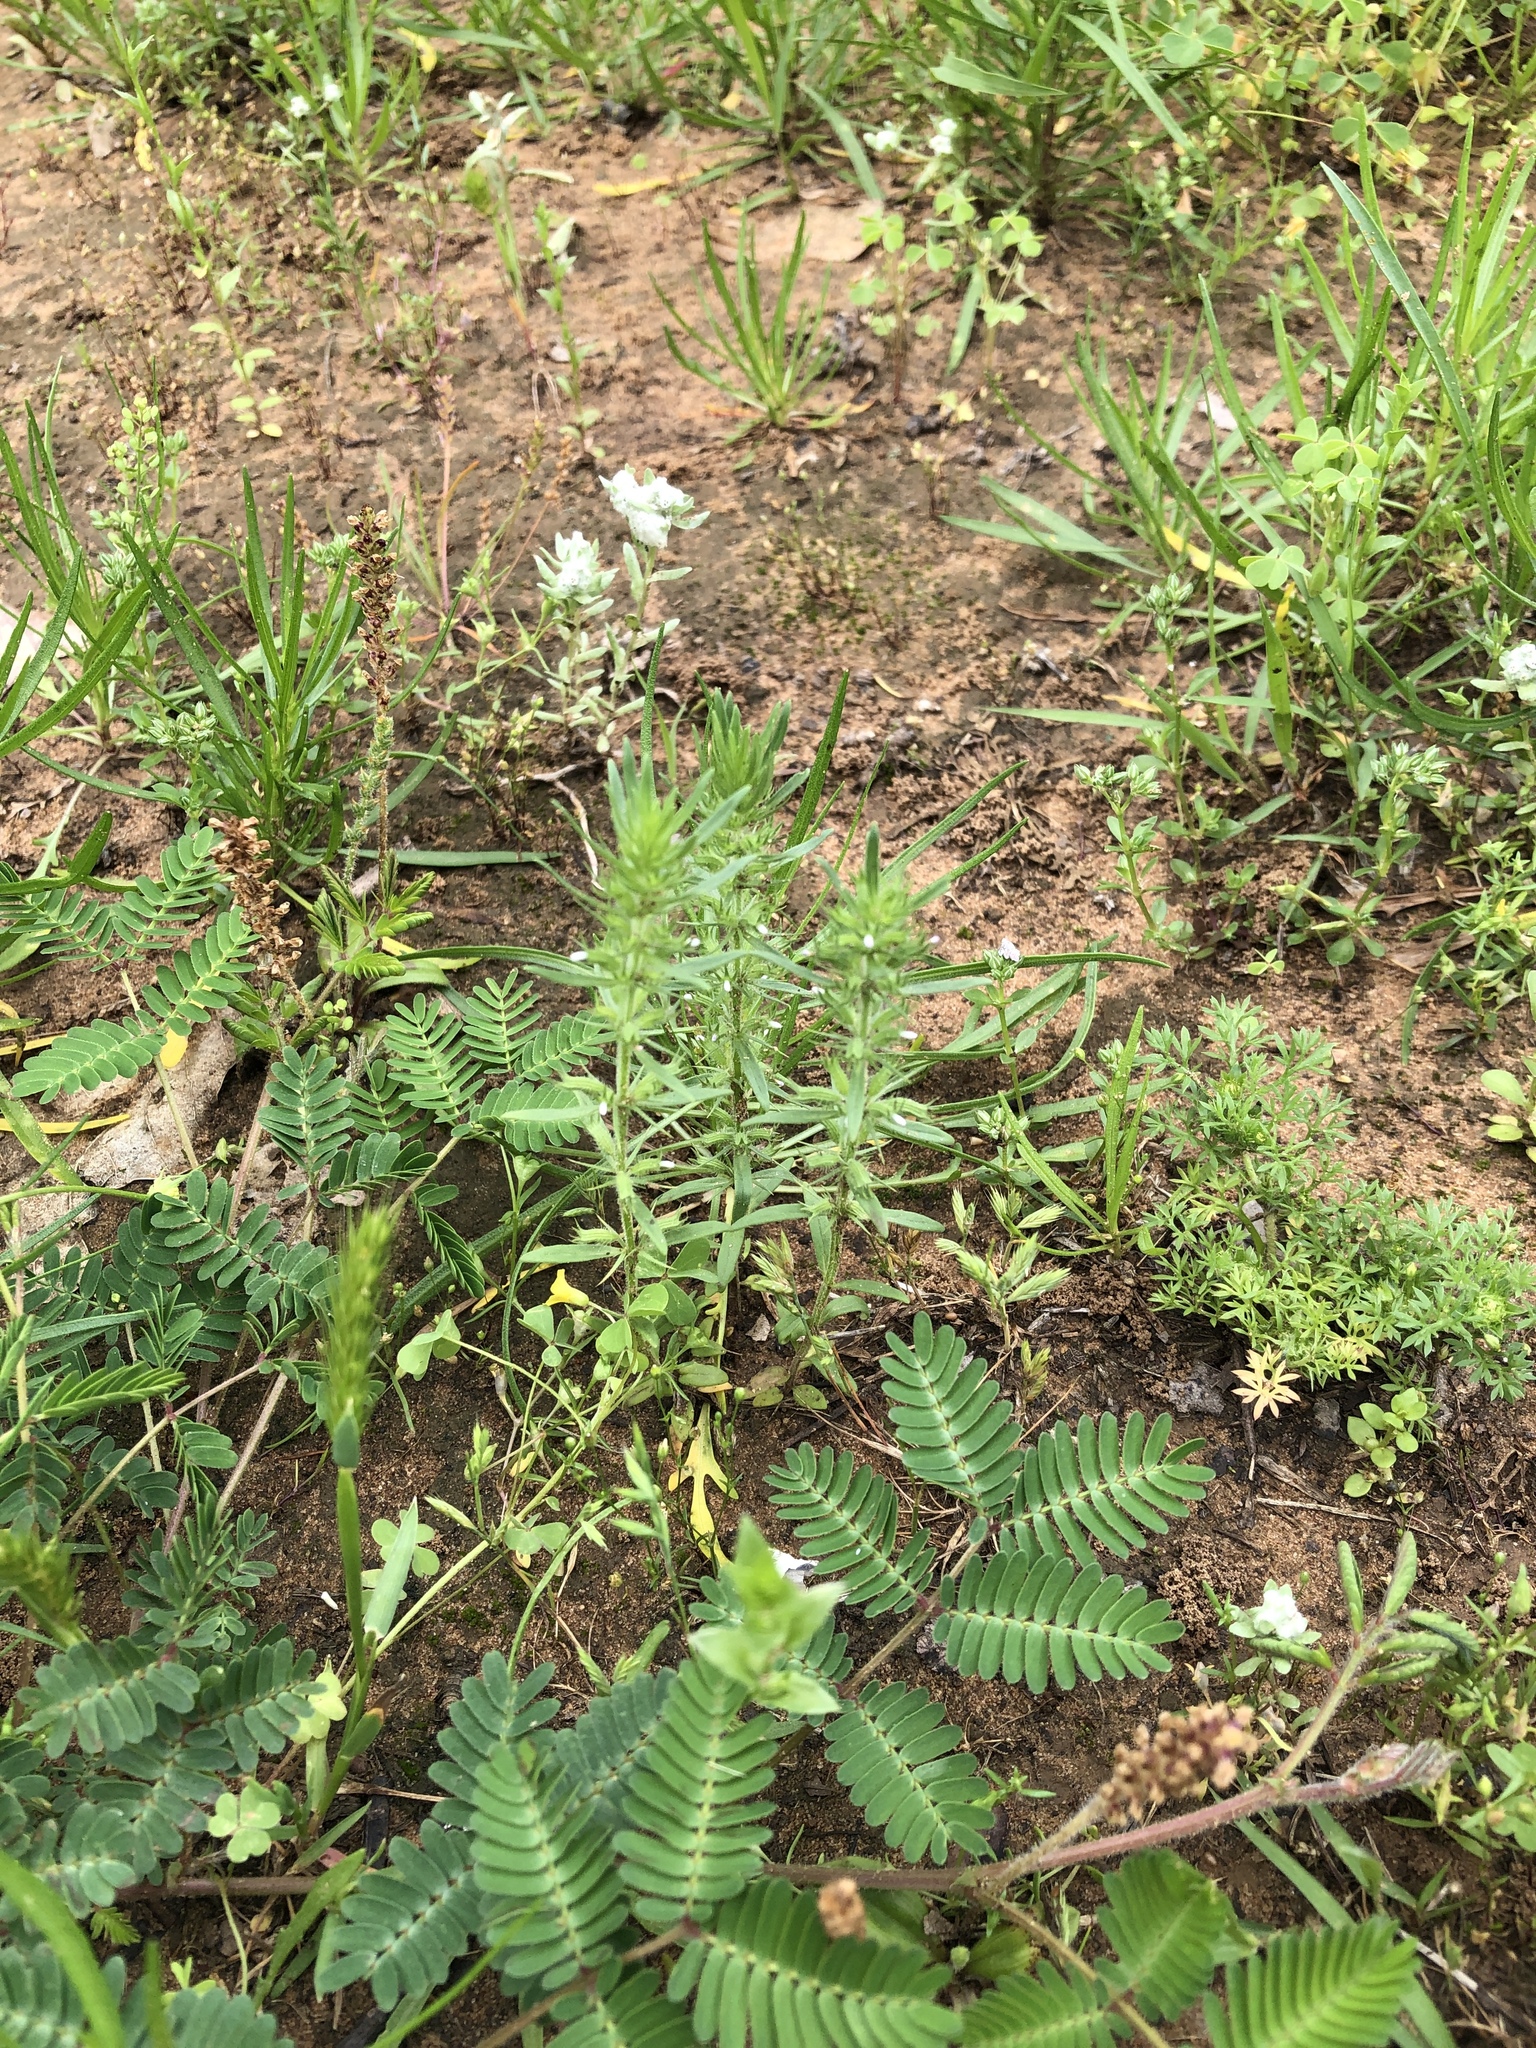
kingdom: Plantae
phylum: Tracheophyta
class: Magnoliopsida
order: Lamiales
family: Lamiaceae
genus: Hedeoma
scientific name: Hedeoma hispida
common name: Mock pennyroyal
